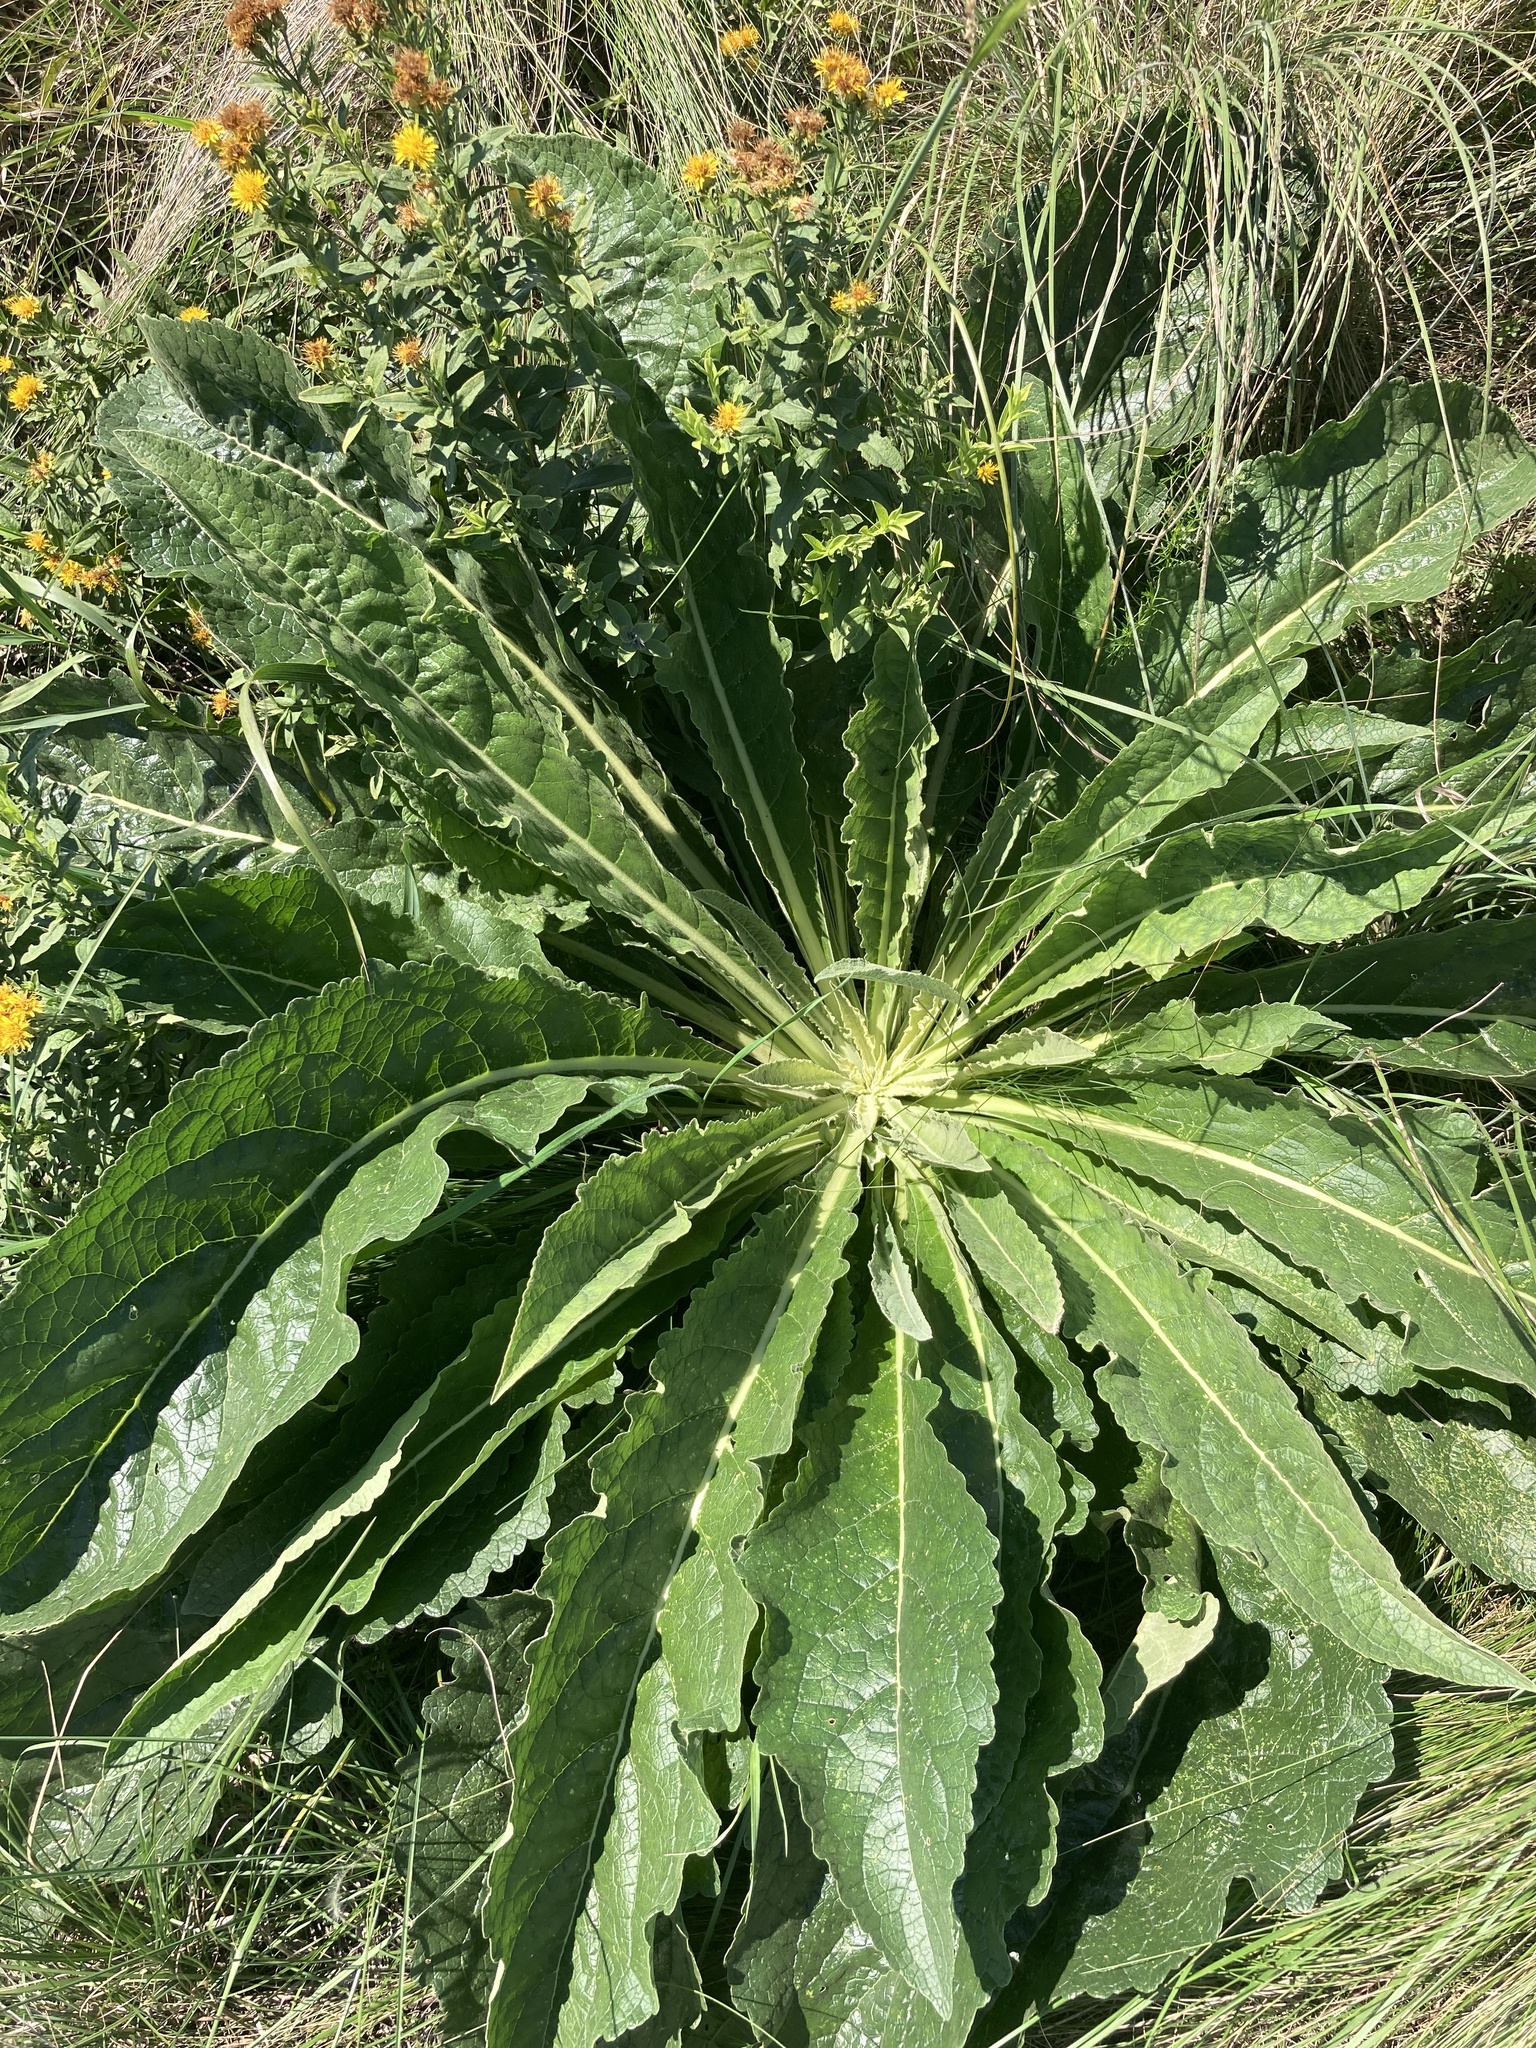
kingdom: Plantae
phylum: Tracheophyta
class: Magnoliopsida
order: Lamiales
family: Scrophulariaceae
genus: Verbascum
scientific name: Verbascum lychnitis
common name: White mullein
